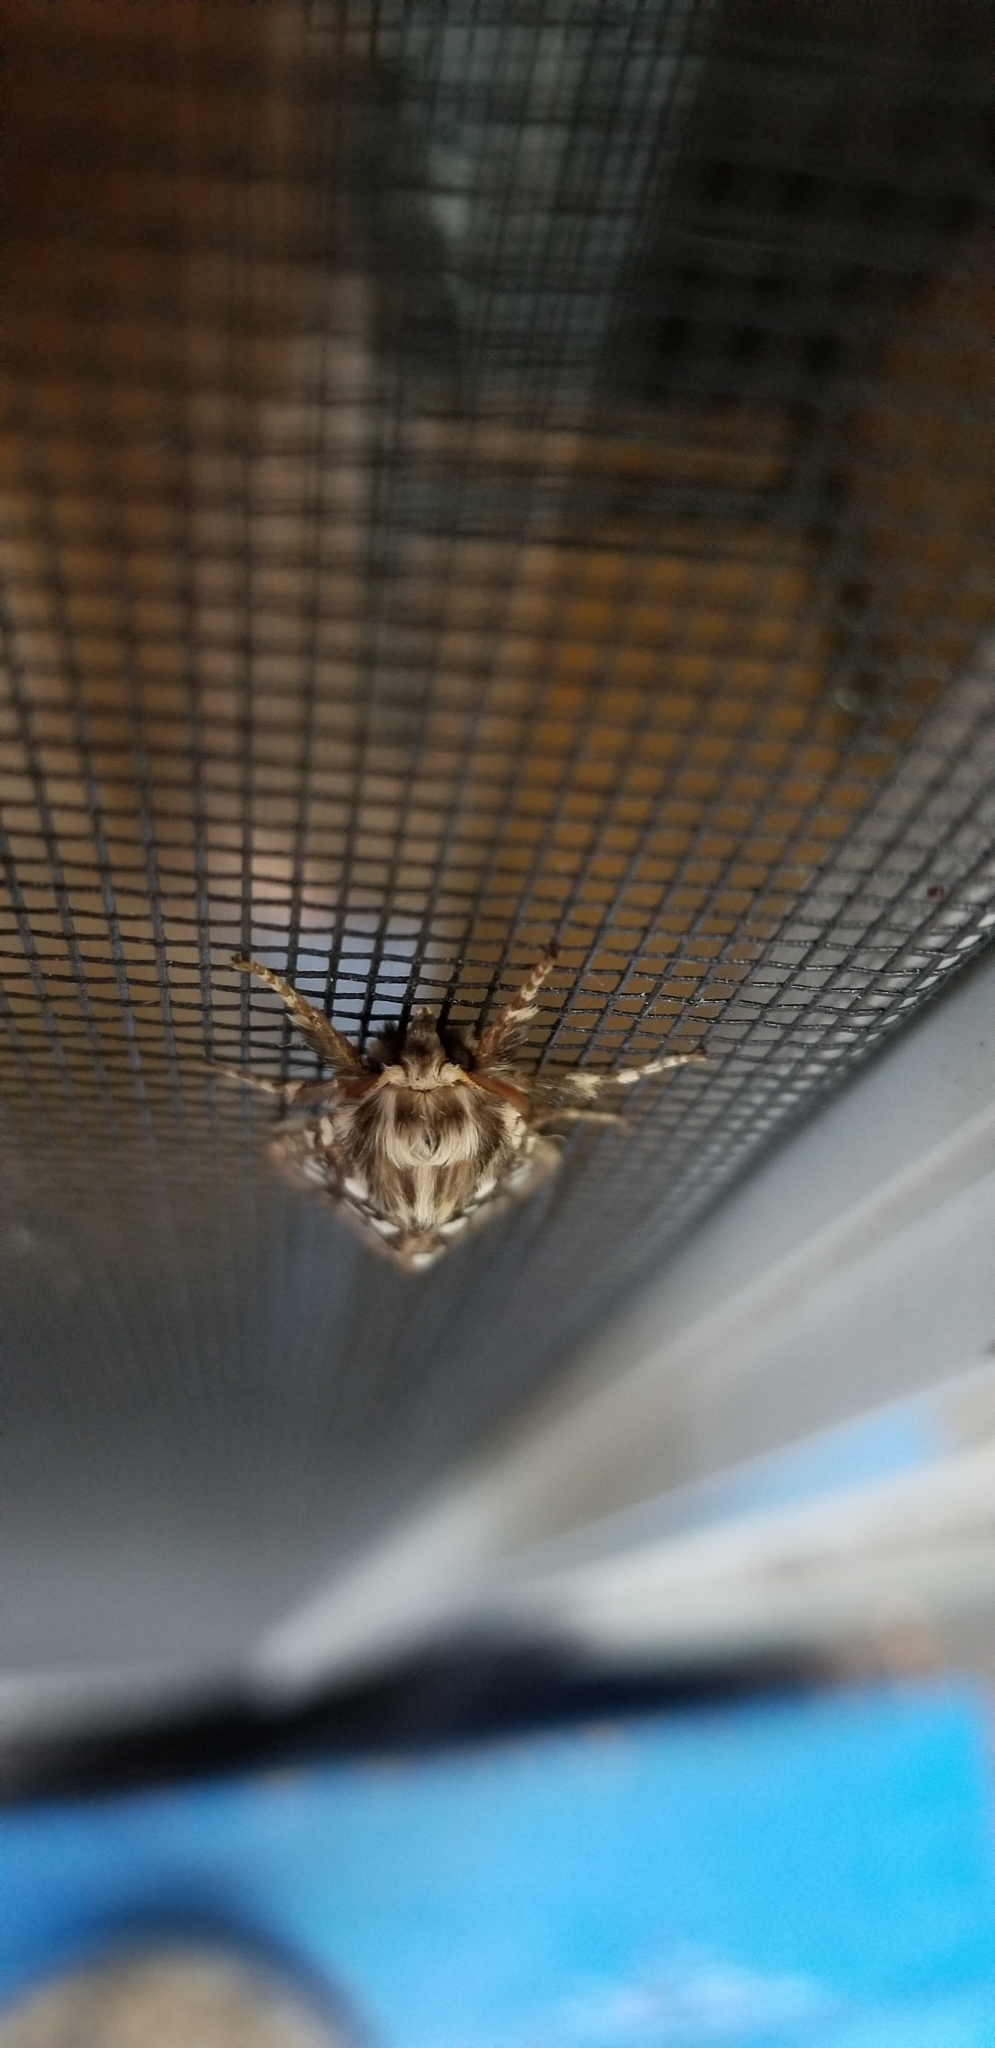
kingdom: Animalia
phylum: Arthropoda
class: Insecta
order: Lepidoptera
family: Erebidae
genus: Lophocampa
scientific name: Lophocampa argentata
